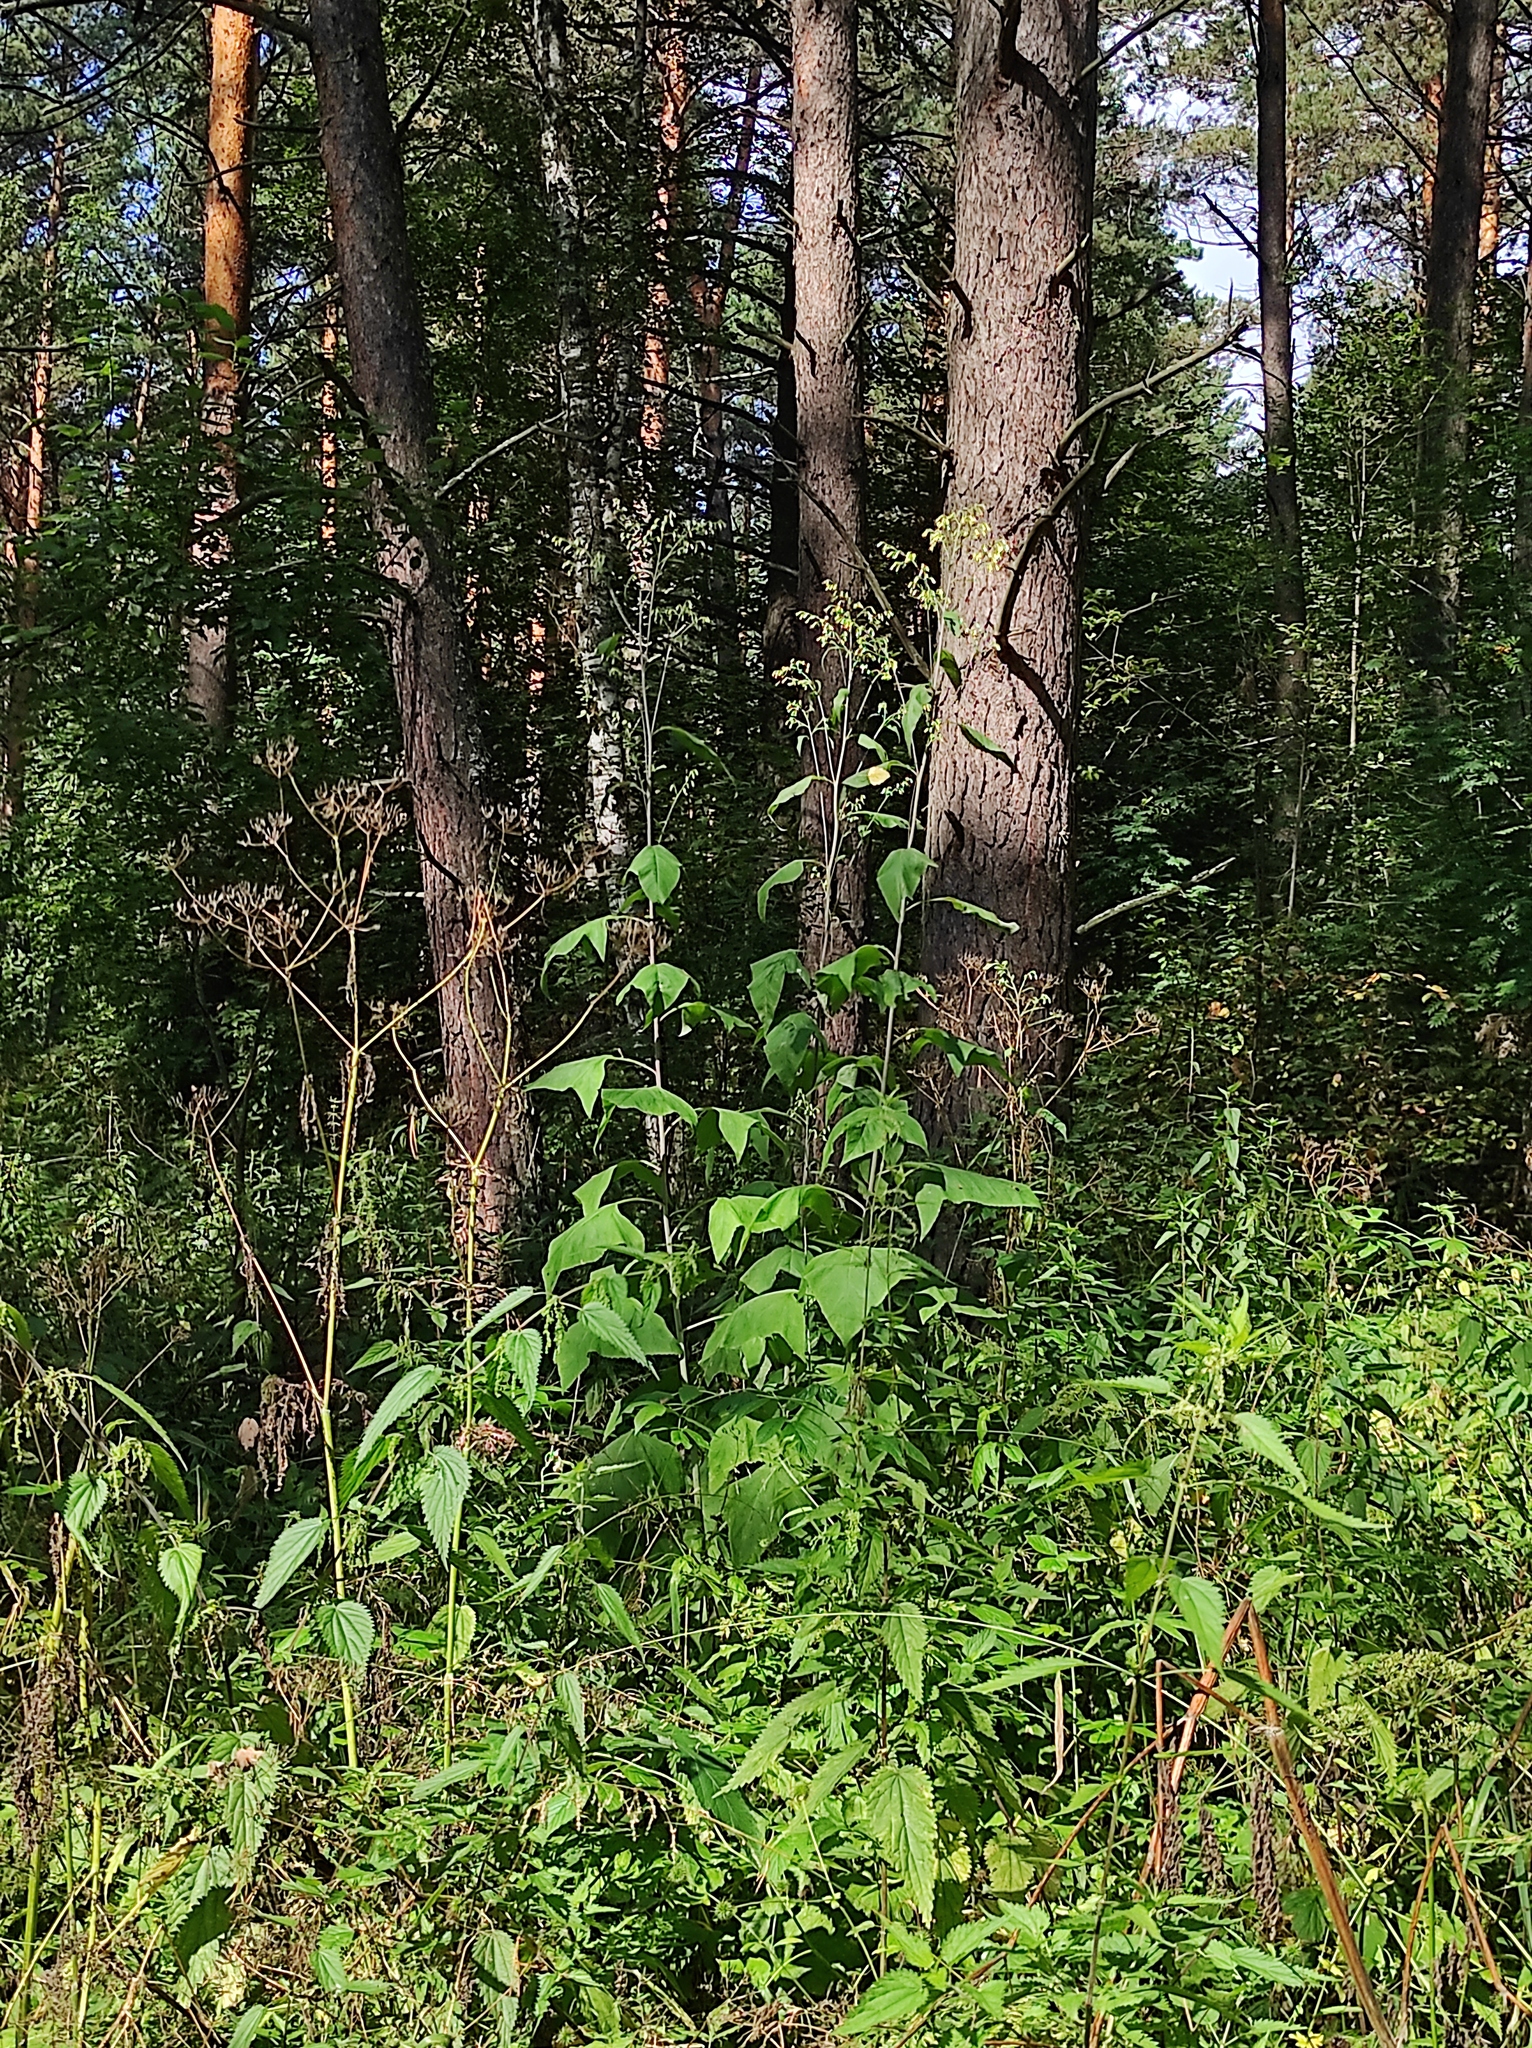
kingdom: Plantae
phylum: Tracheophyta
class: Magnoliopsida
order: Asterales
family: Asteraceae
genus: Parasenecio
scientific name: Parasenecio hastatus
